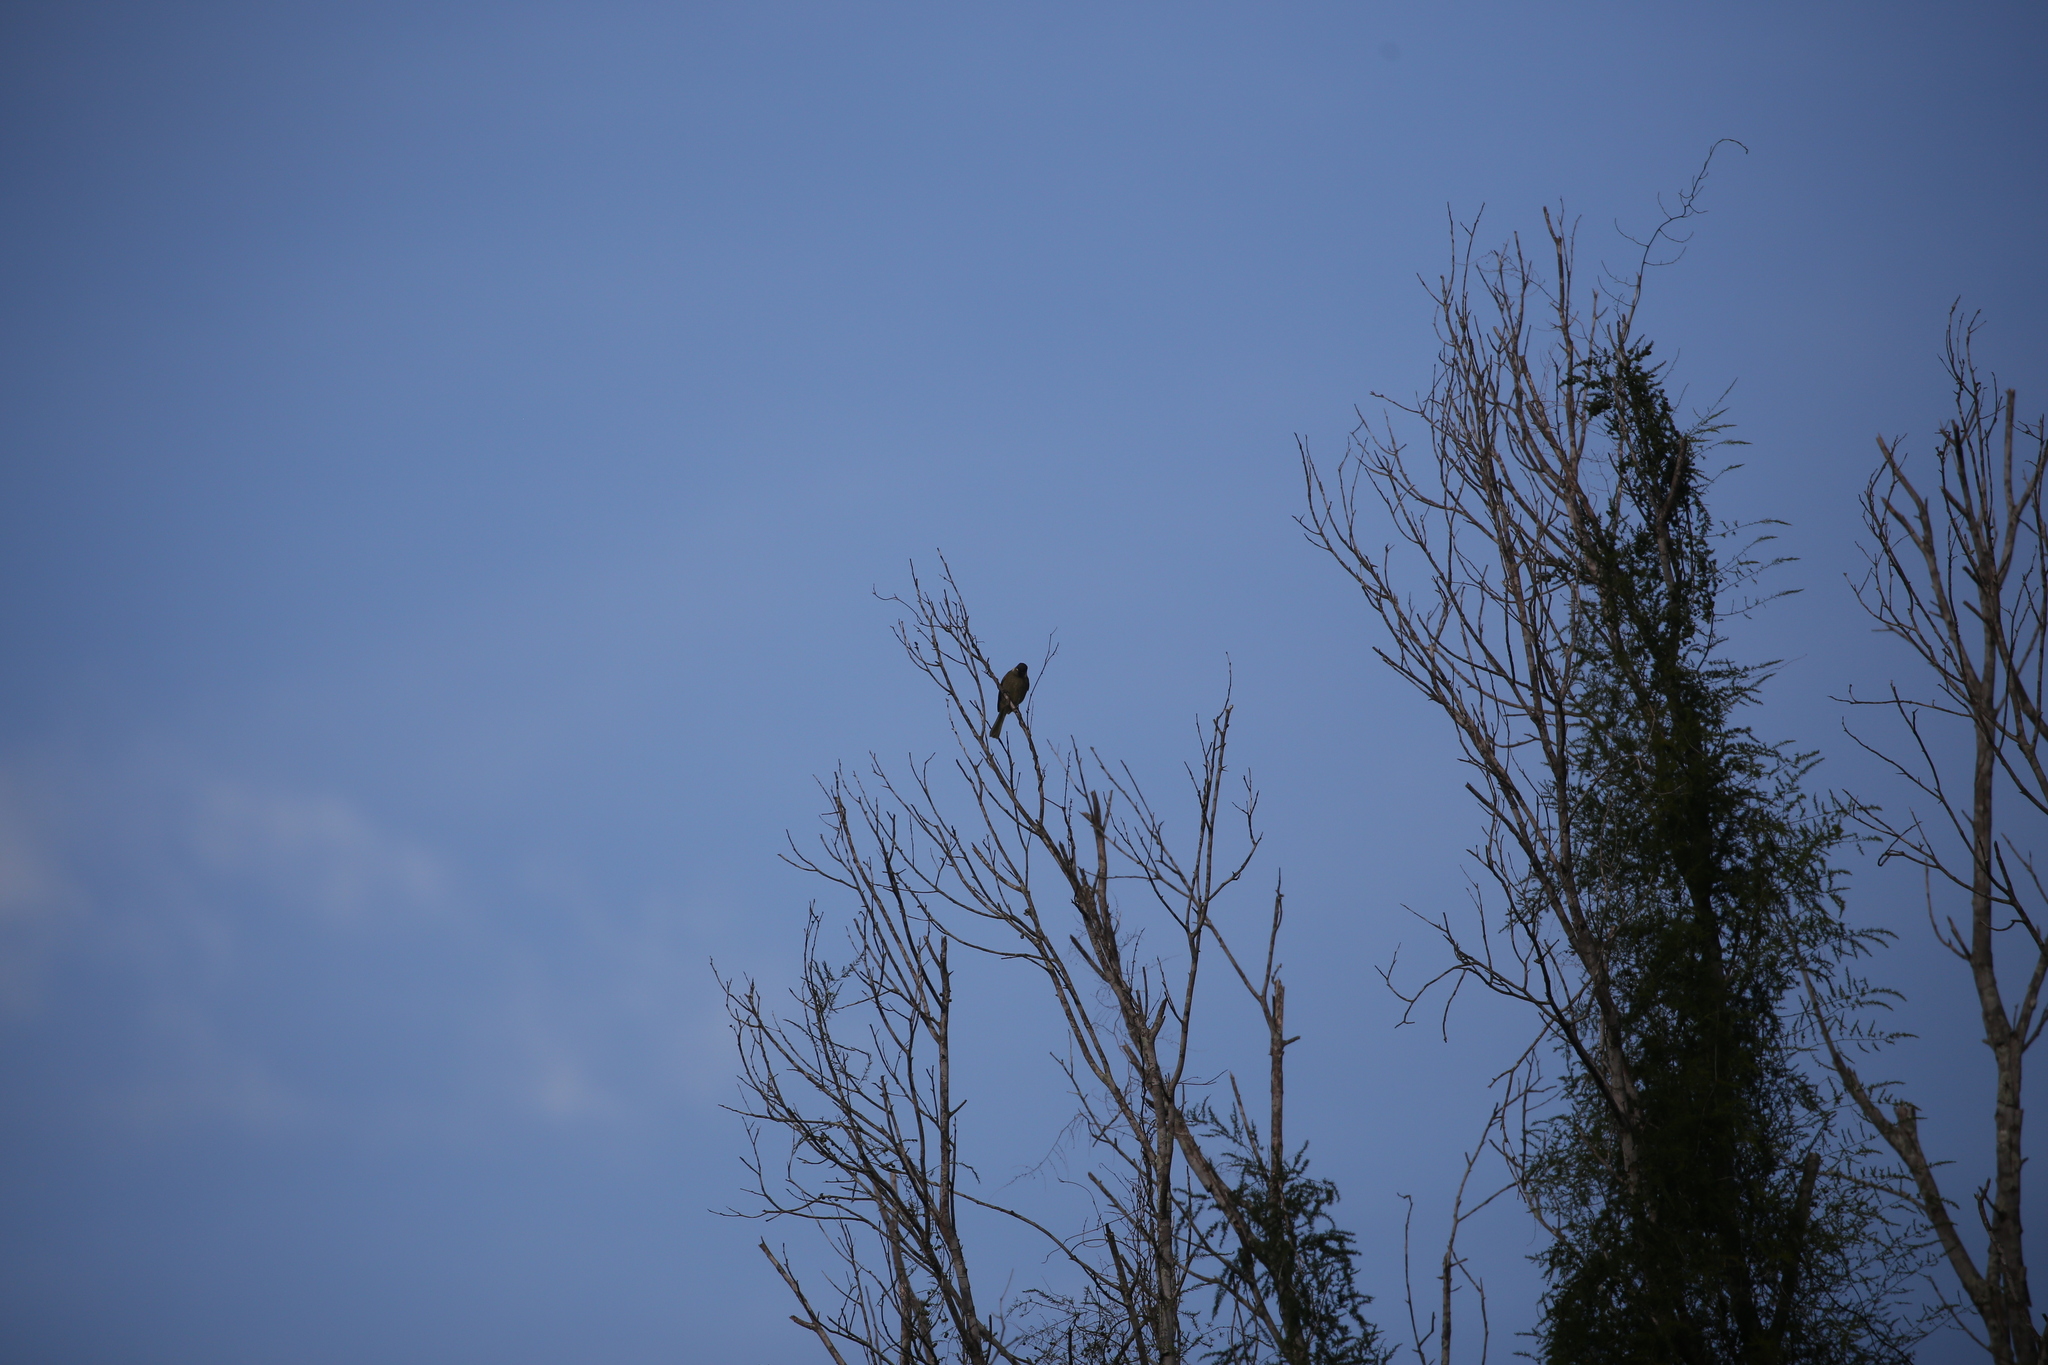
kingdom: Animalia
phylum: Chordata
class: Aves
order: Passeriformes
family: Meliphagidae
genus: Meliphaga
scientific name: Meliphaga lewinii
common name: Lewin's honeyeater
